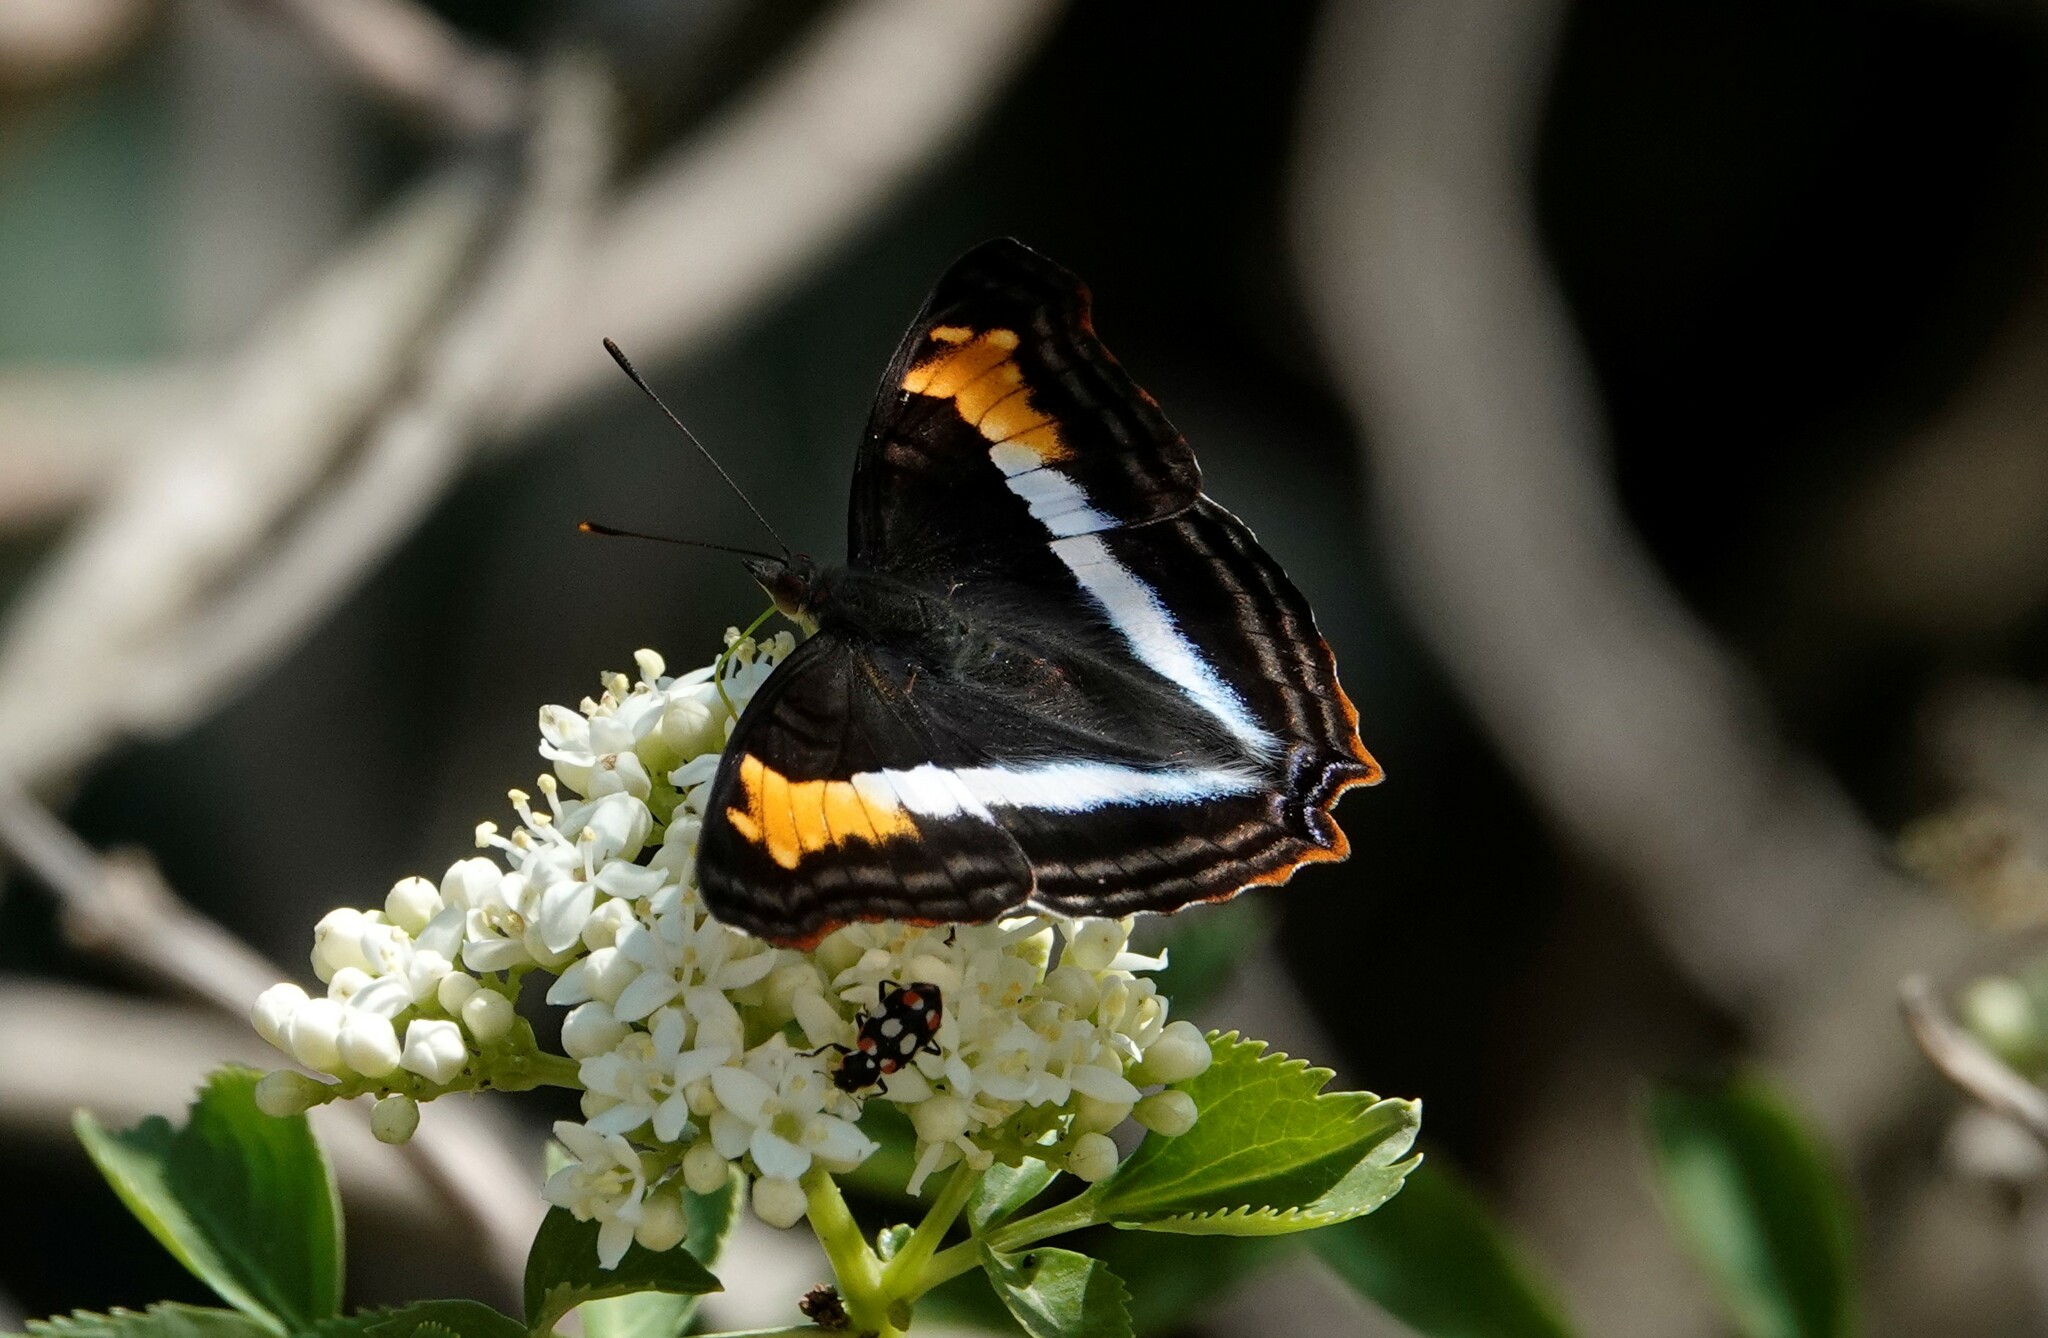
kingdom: Animalia
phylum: Arthropoda
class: Insecta
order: Lepidoptera
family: Nymphalidae
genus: Doxocopa
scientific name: Doxocopa laurentia
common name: Turquoise emperor
